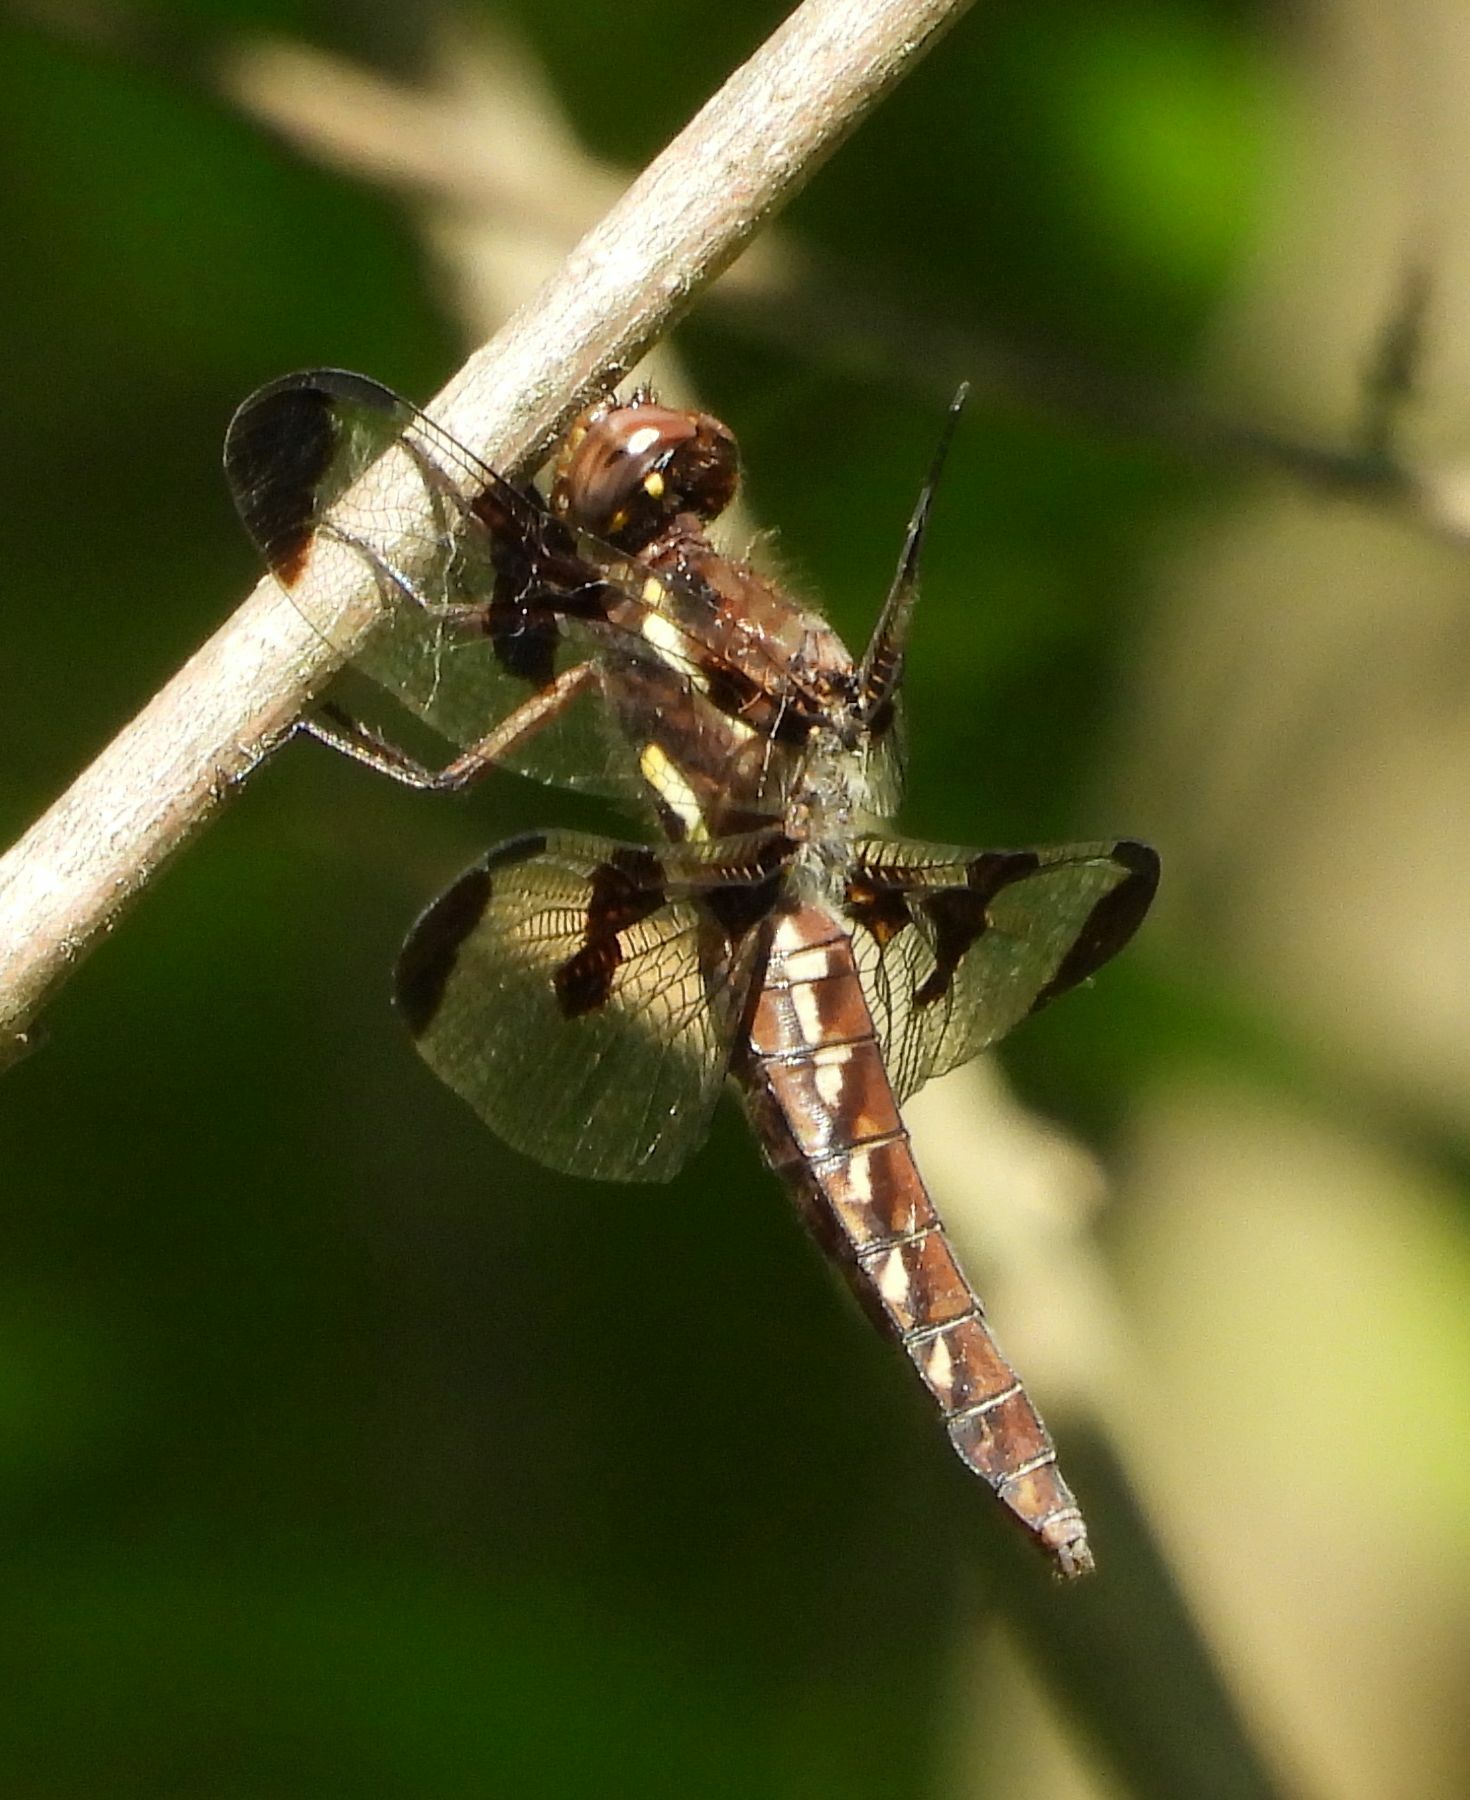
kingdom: Animalia
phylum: Arthropoda
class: Insecta
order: Odonata
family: Libellulidae
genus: Plathemis
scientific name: Plathemis lydia
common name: Common whitetail
